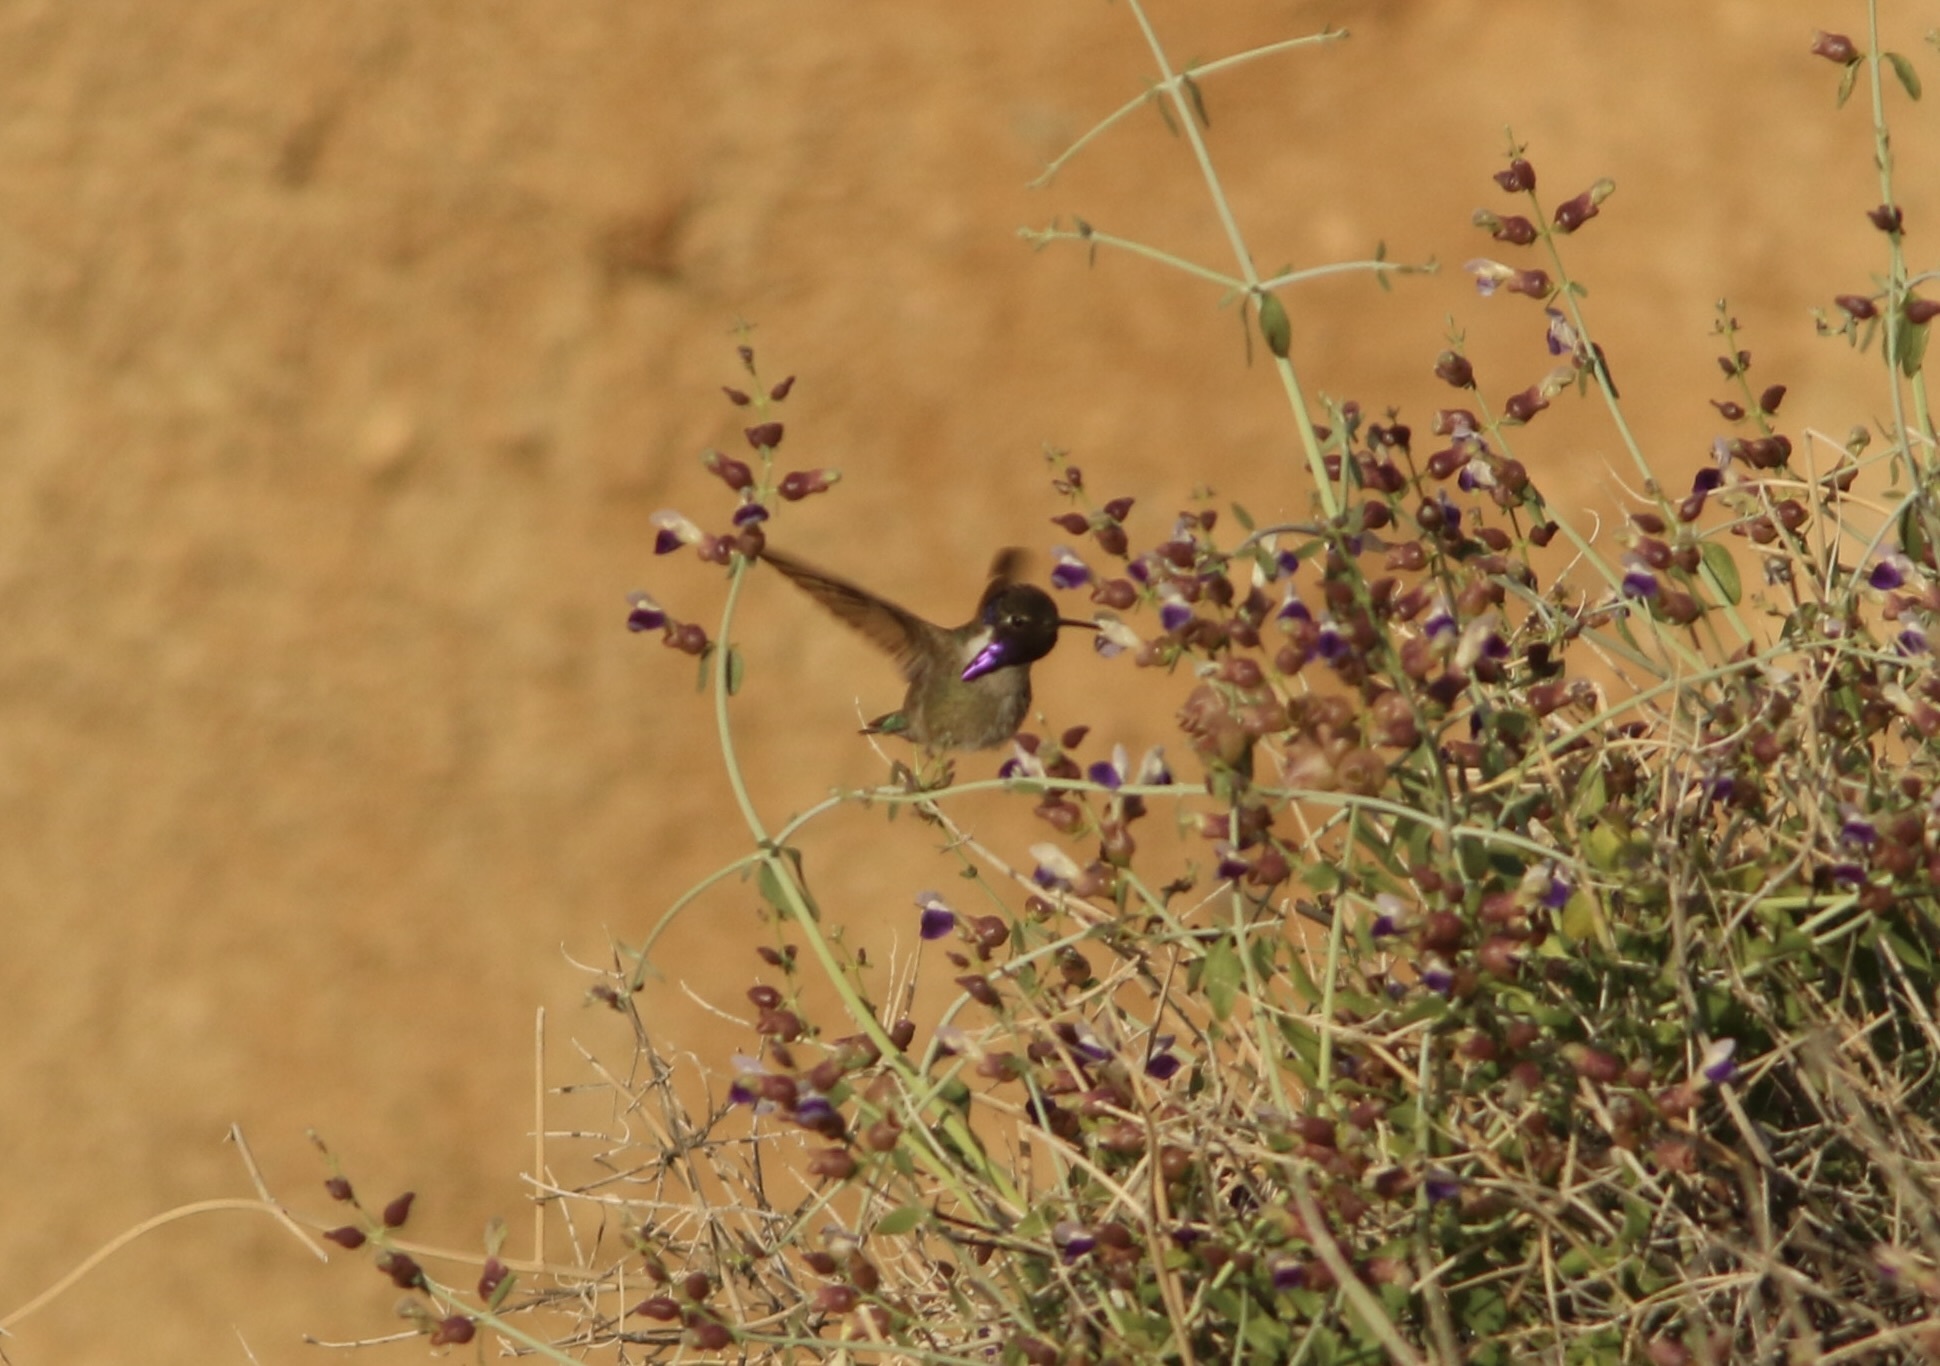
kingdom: Animalia
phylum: Chordata
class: Aves
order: Apodiformes
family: Trochilidae
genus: Calypte
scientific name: Calypte costae
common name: Costa's hummingbird
